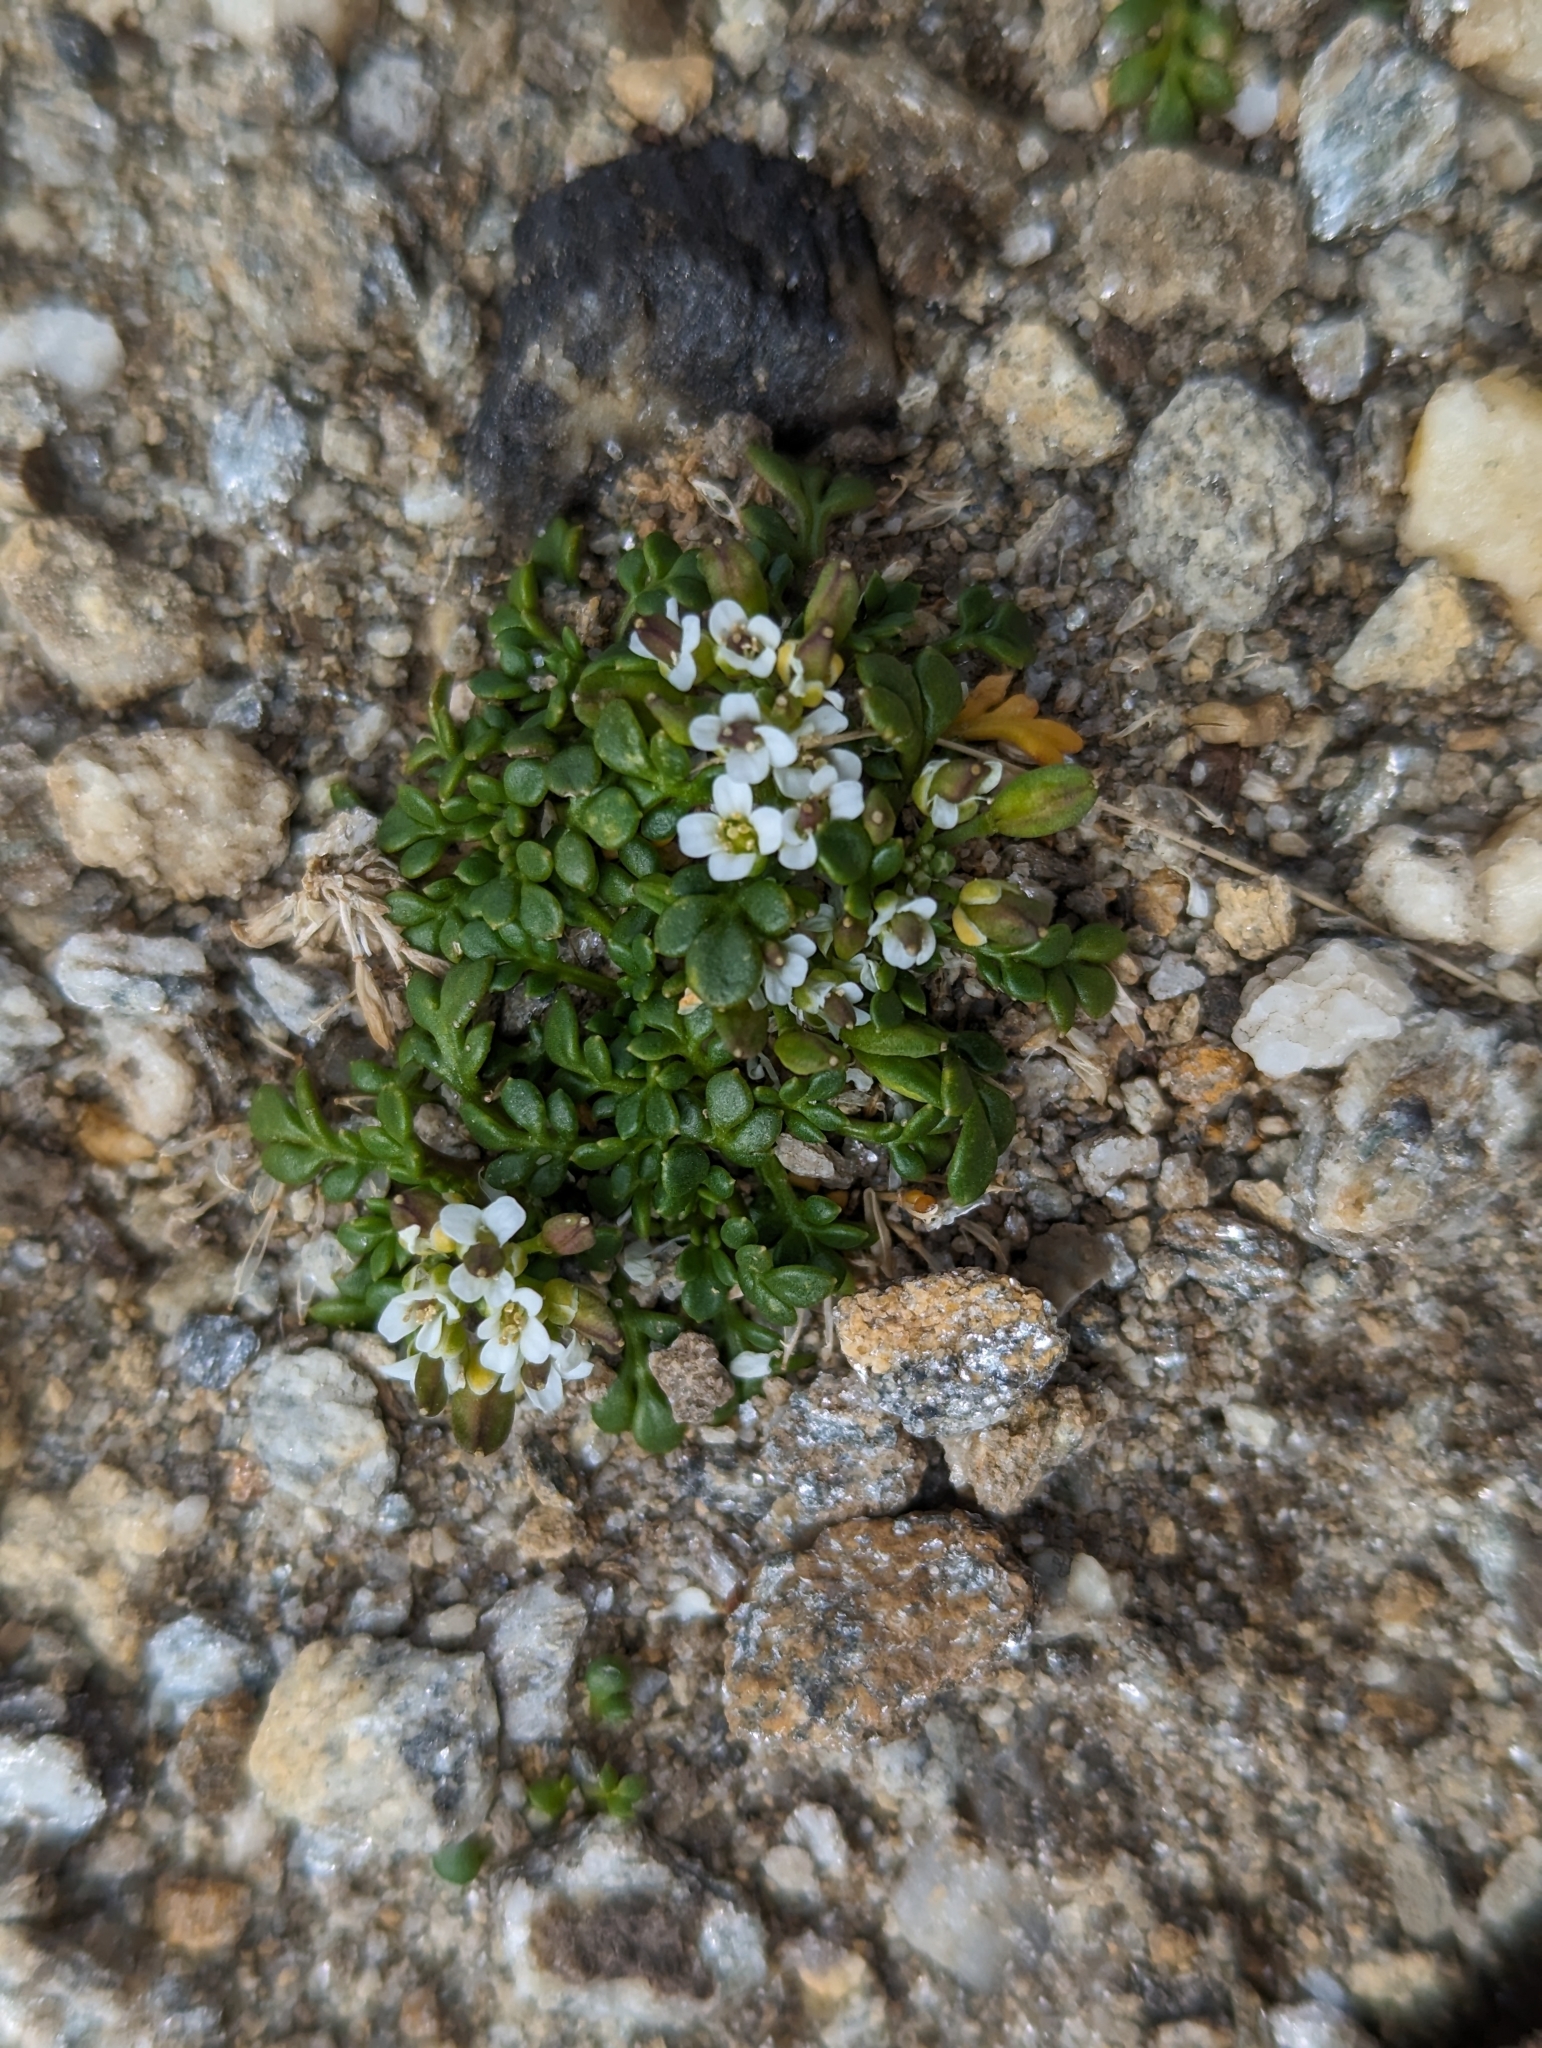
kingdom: Plantae
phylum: Tracheophyta
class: Magnoliopsida
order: Brassicales
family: Brassicaceae
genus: Hornungia
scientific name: Hornungia alpina
